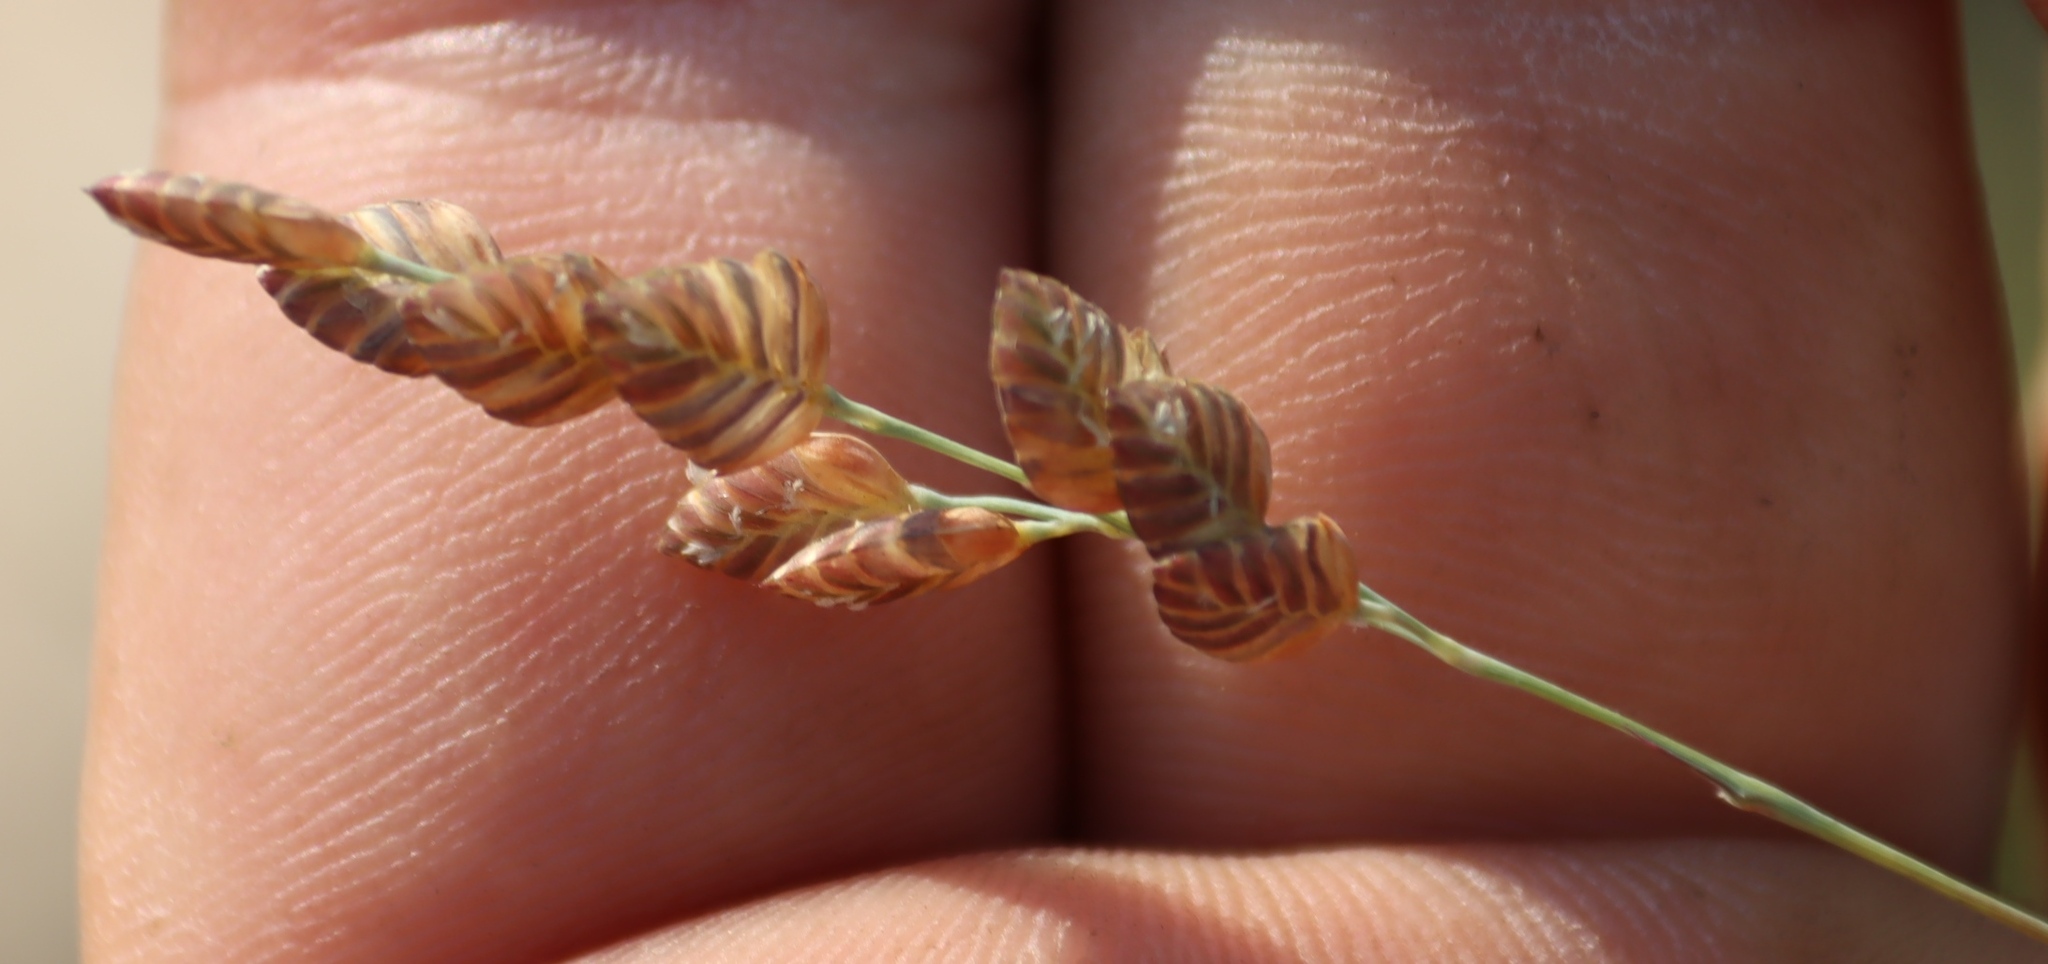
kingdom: Plantae
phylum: Tracheophyta
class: Liliopsida
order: Poales
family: Poaceae
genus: Eragrostis
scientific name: Eragrostis capensis
